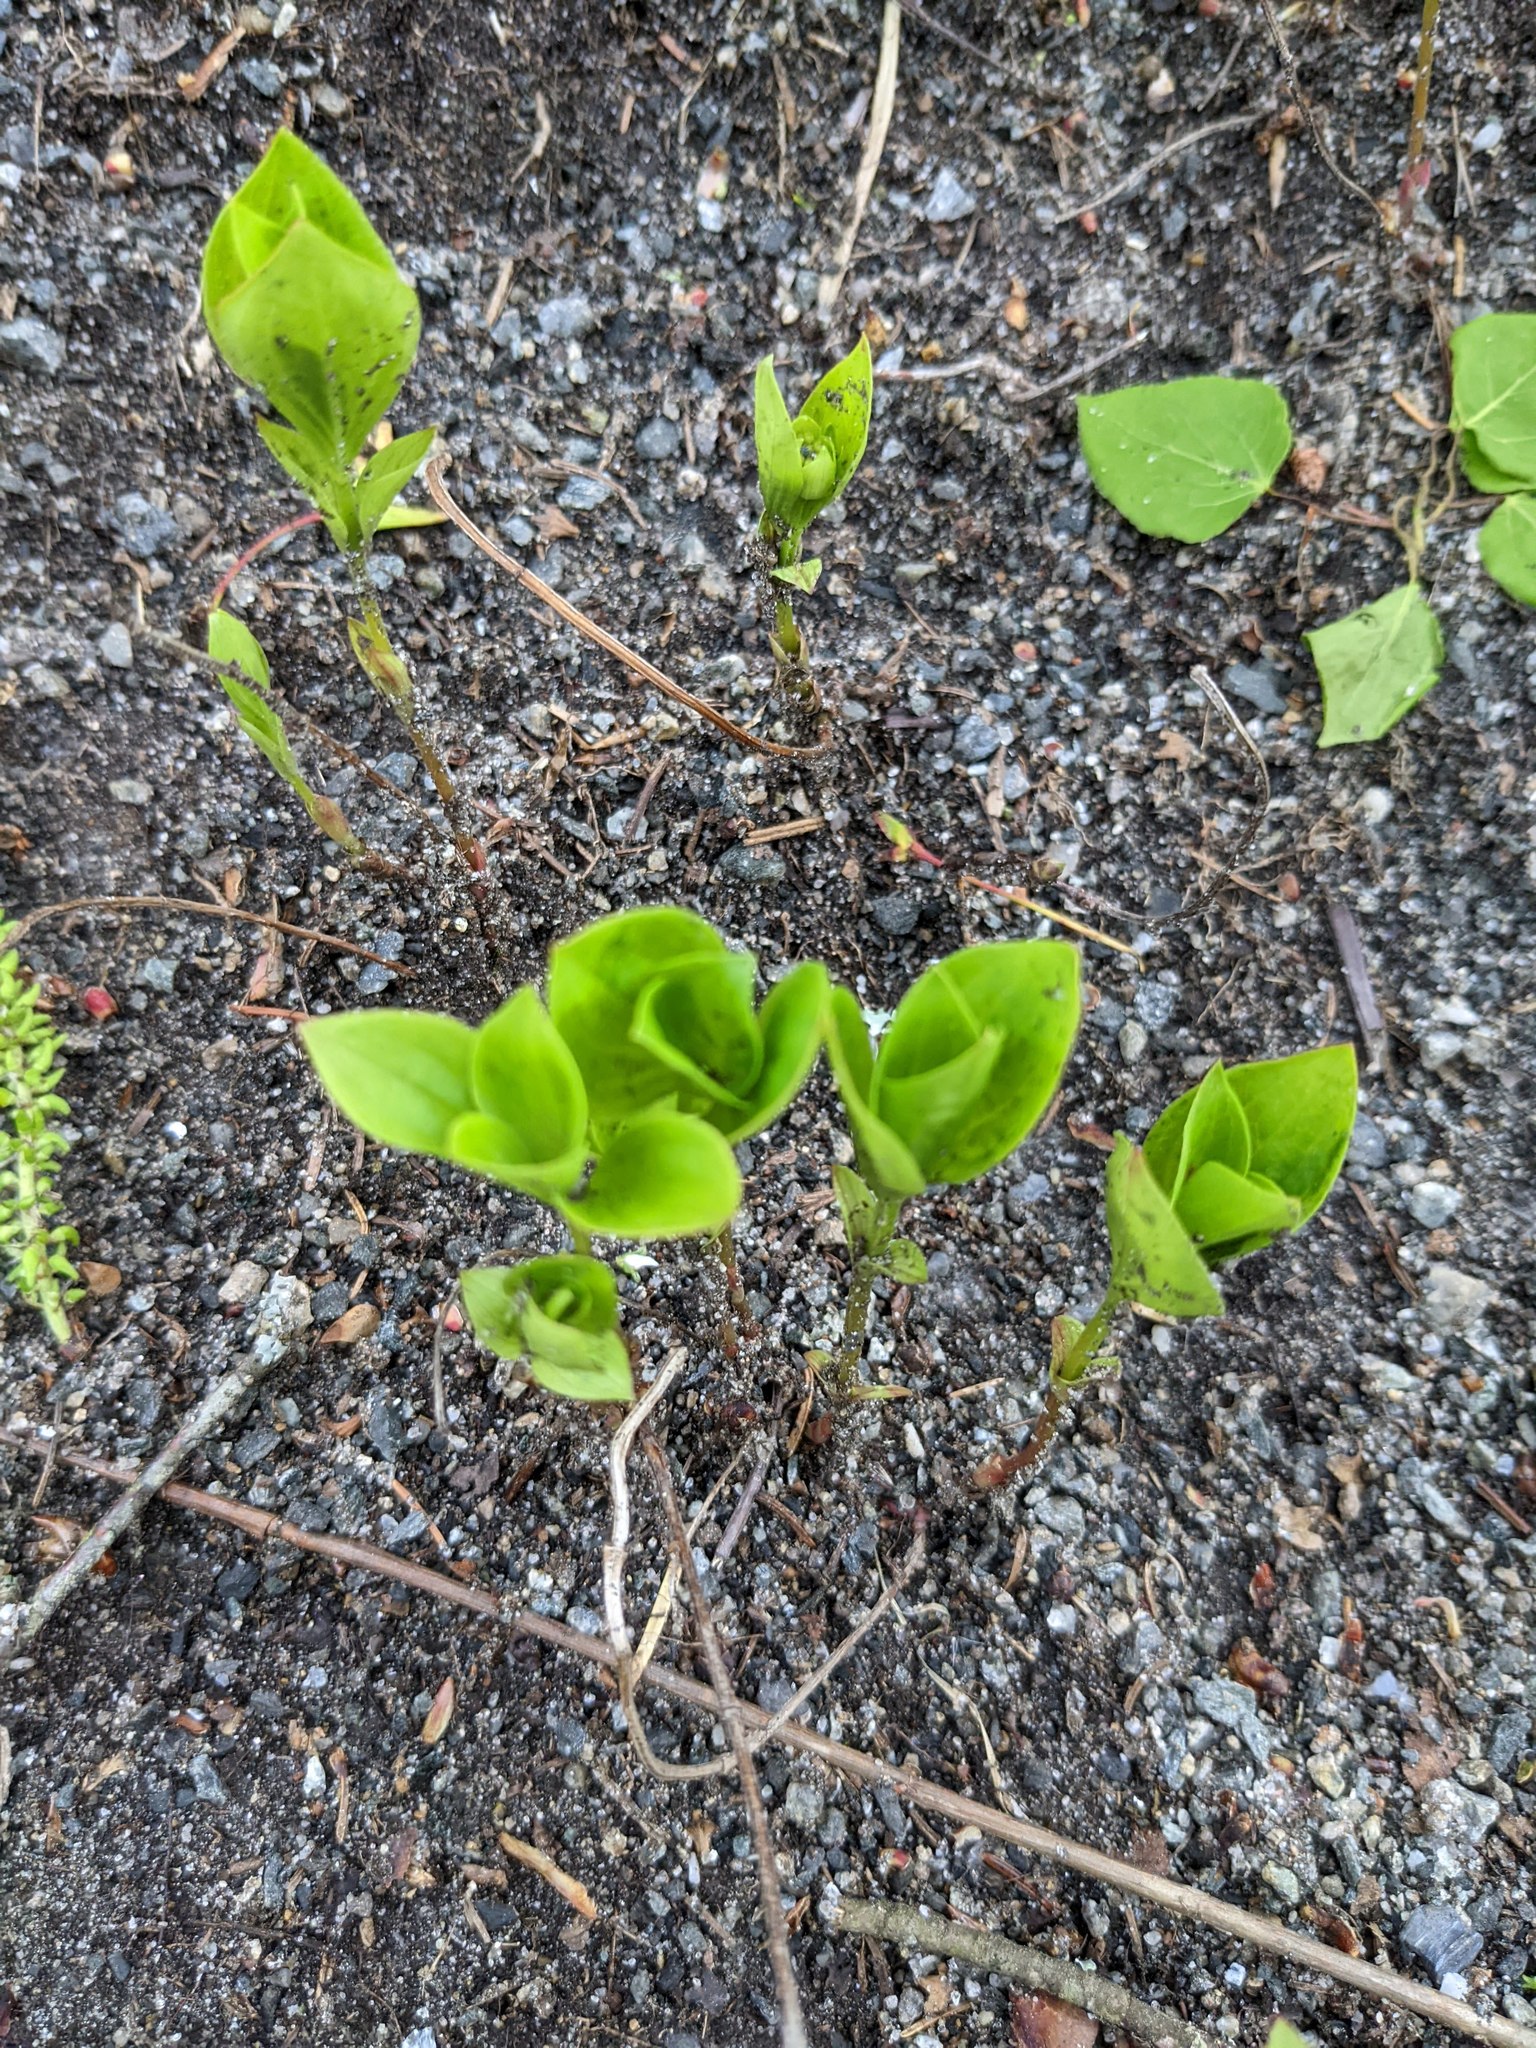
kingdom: Plantae
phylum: Tracheophyta
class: Magnoliopsida
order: Cornales
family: Cornaceae
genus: Cornus
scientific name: Cornus canadensis
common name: Creeping dogwood
